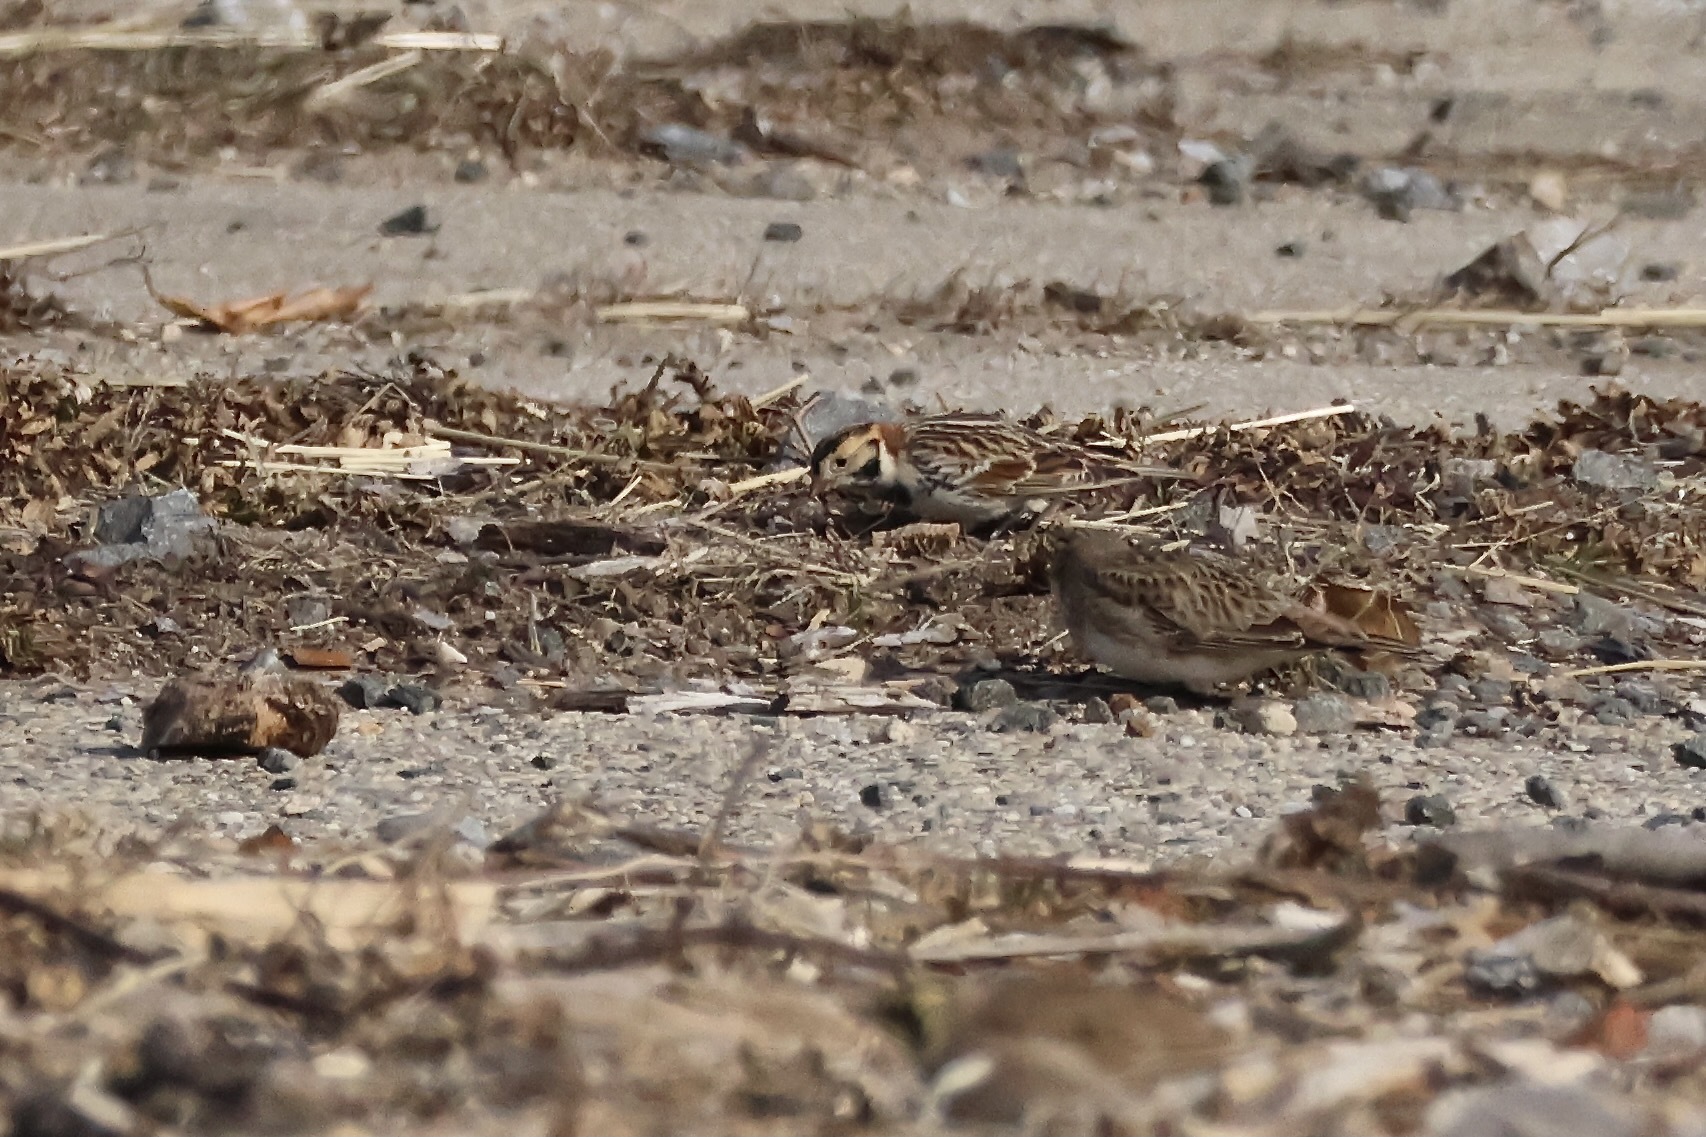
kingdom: Animalia
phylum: Chordata
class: Aves
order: Passeriformes
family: Calcariidae
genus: Calcarius
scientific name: Calcarius lapponicus
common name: Lapland longspur
